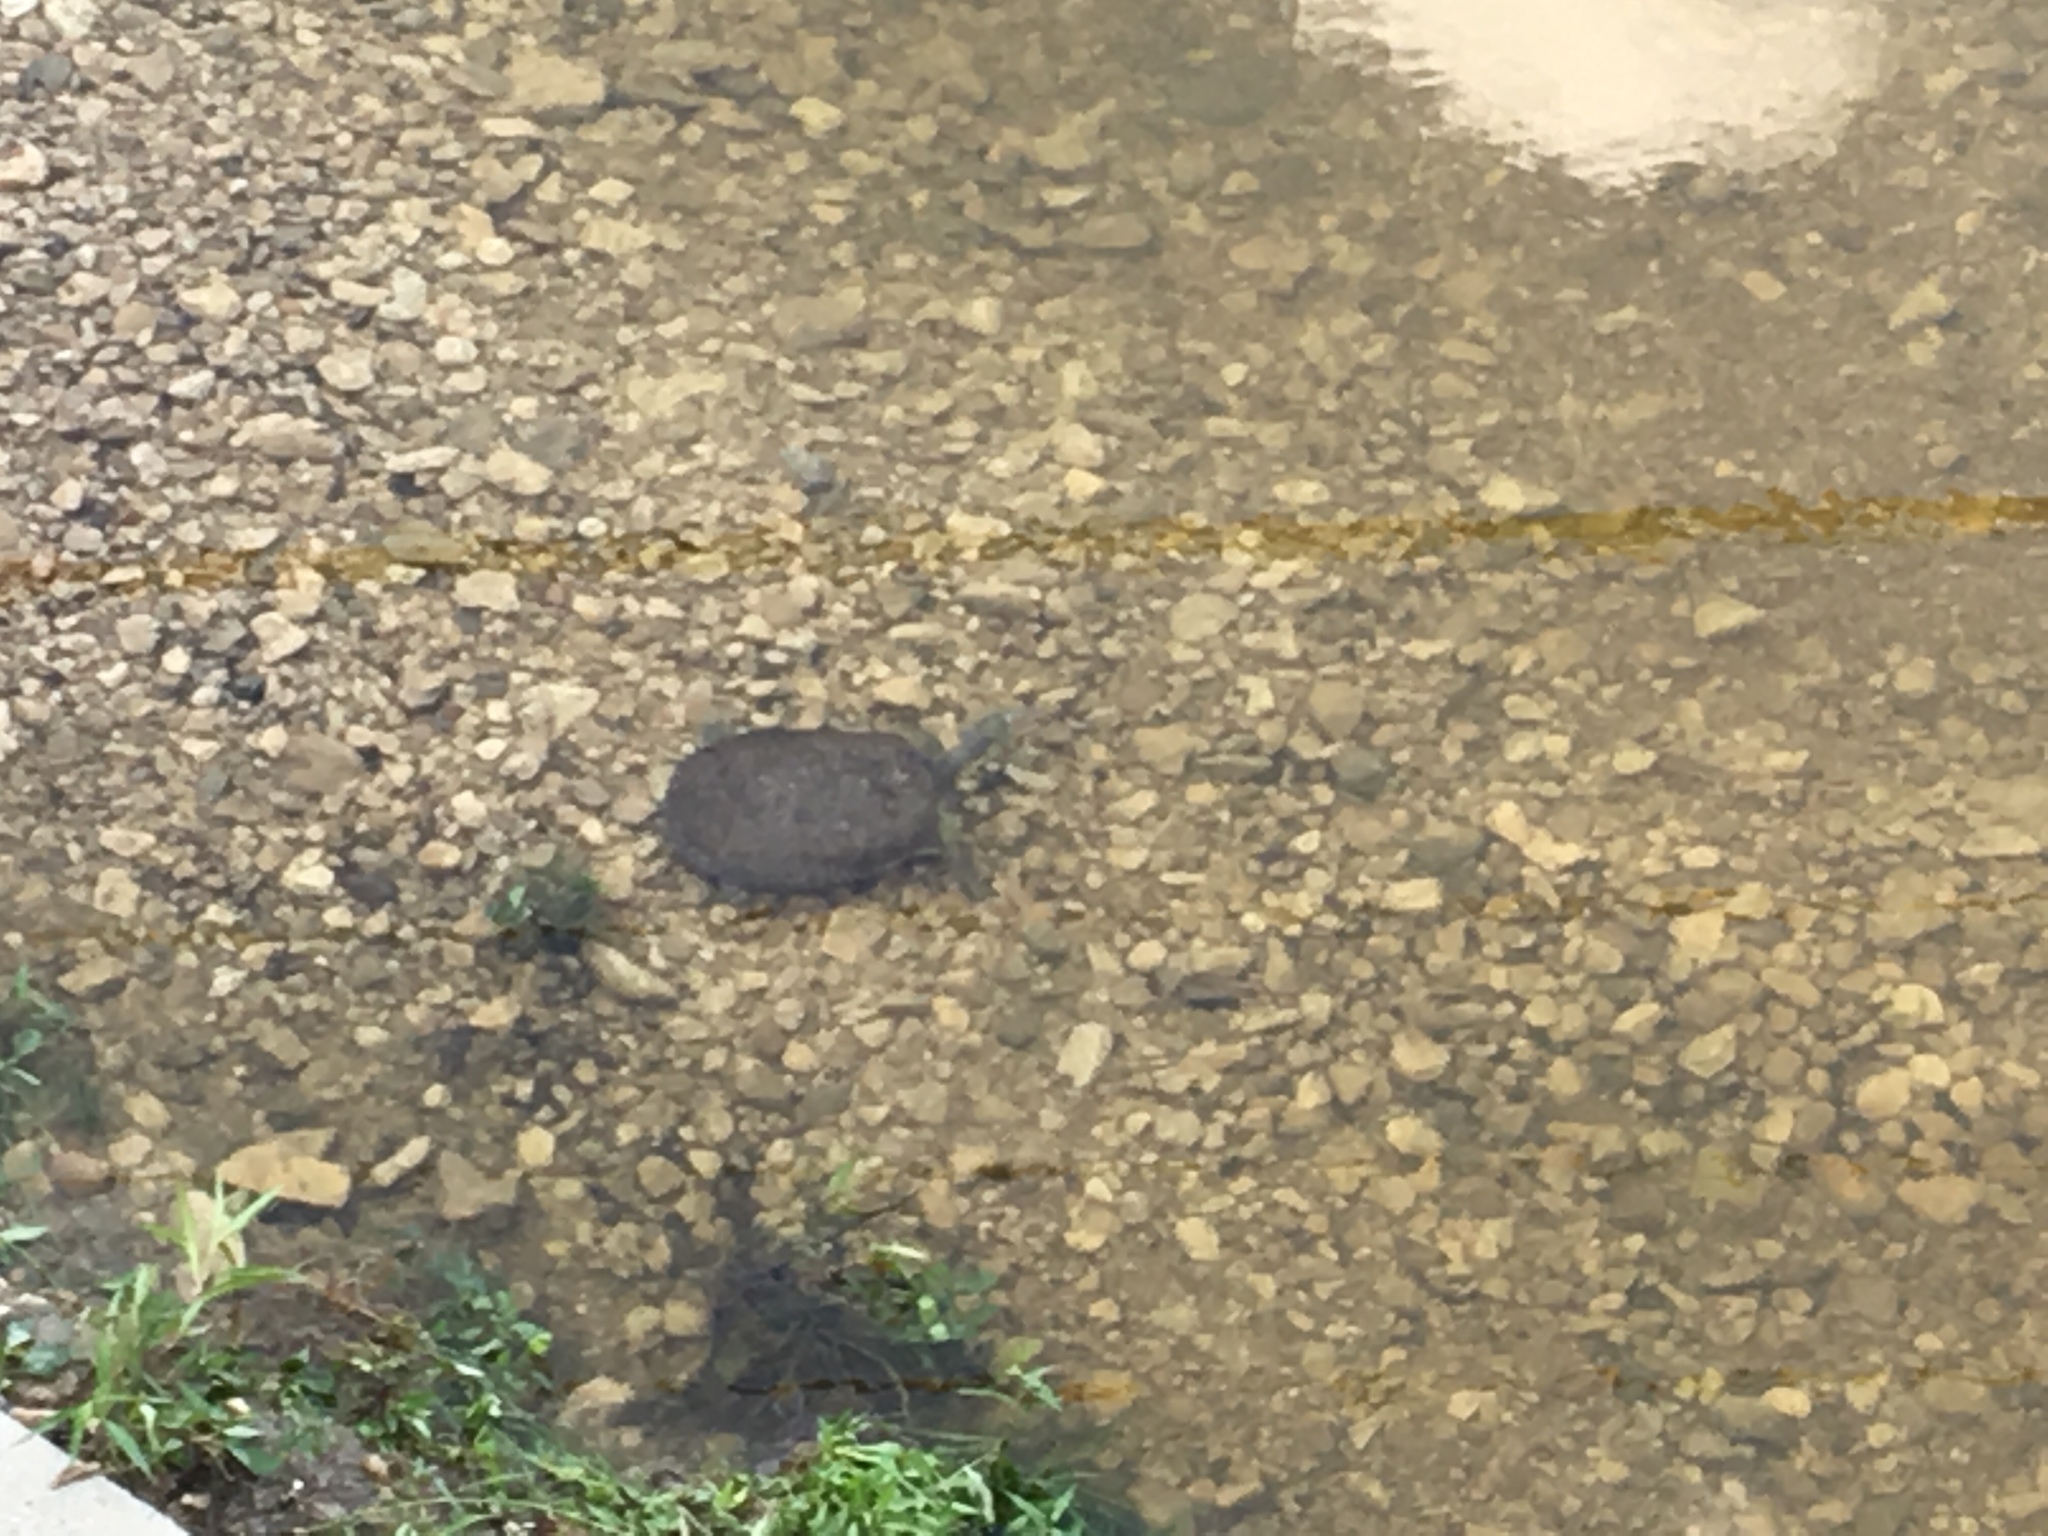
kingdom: Animalia
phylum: Chordata
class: Testudines
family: Trionychidae
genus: Apalone
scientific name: Apalone spinifera
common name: Spiny softshell turtle
